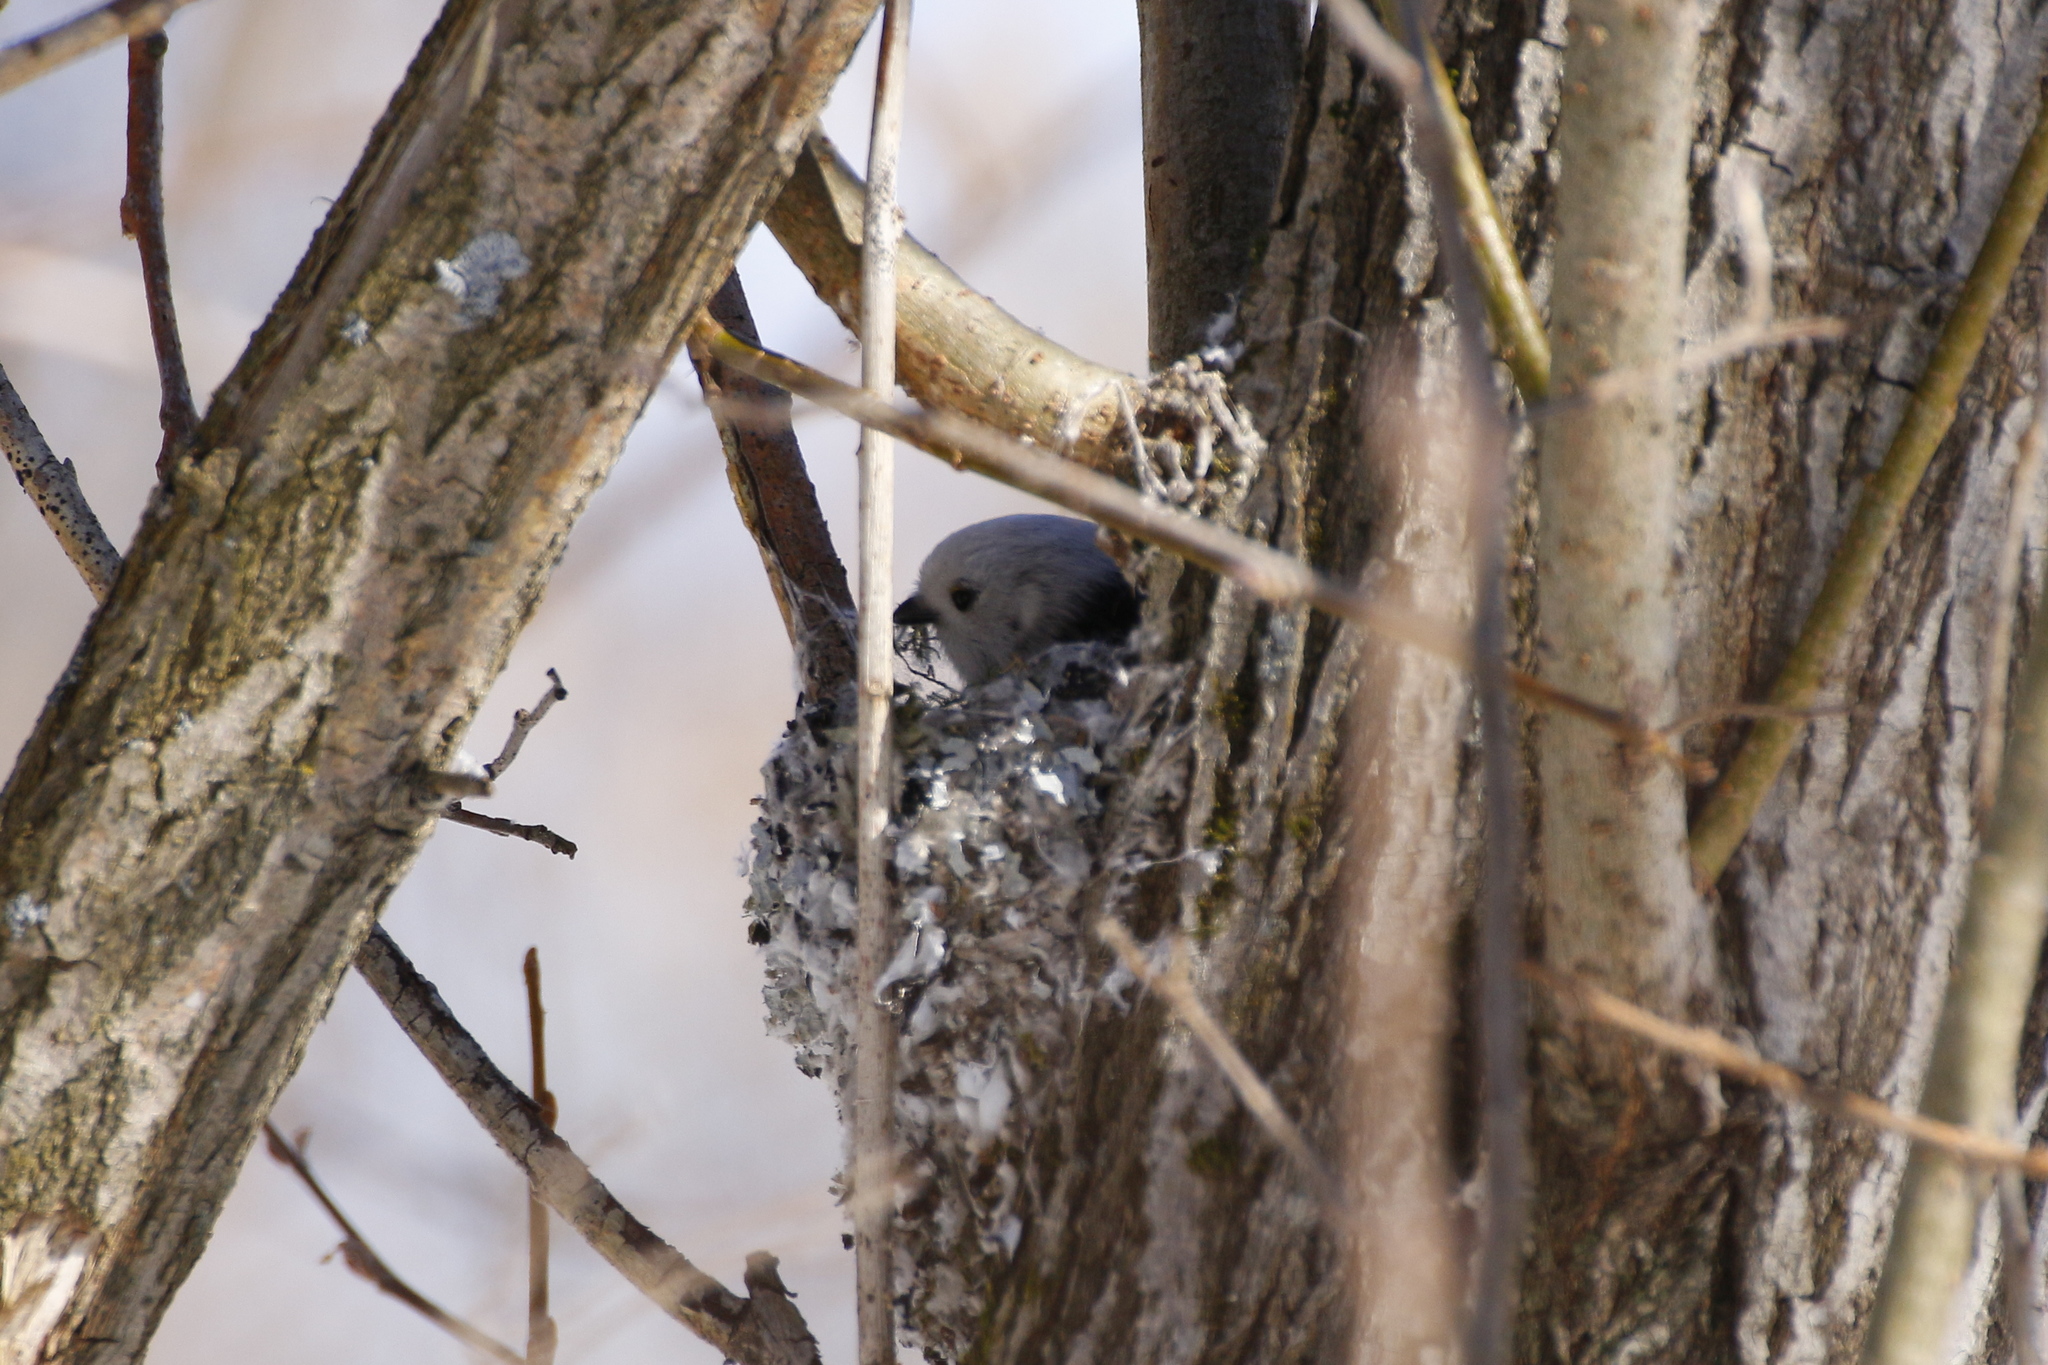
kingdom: Animalia
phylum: Chordata
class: Aves
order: Passeriformes
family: Aegithalidae
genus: Aegithalos
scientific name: Aegithalos caudatus
